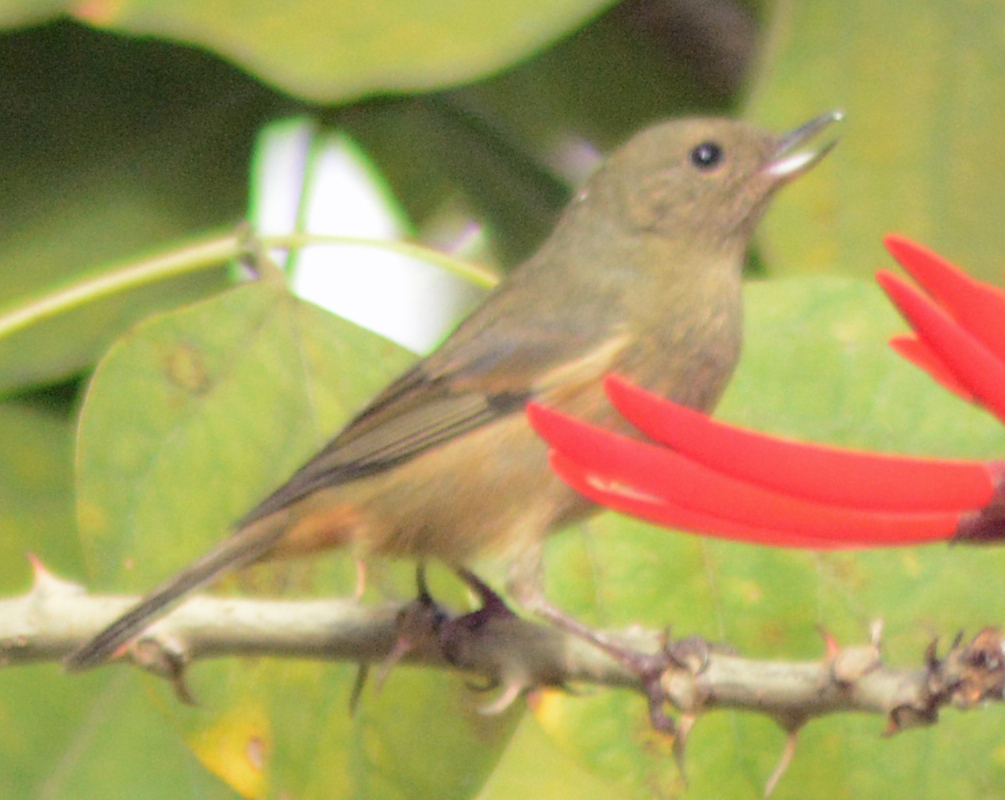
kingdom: Animalia
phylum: Chordata
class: Aves
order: Passeriformes
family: Thraupidae
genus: Diglossa
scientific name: Diglossa baritula
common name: Cinnamon-bellied flowerpiercer
